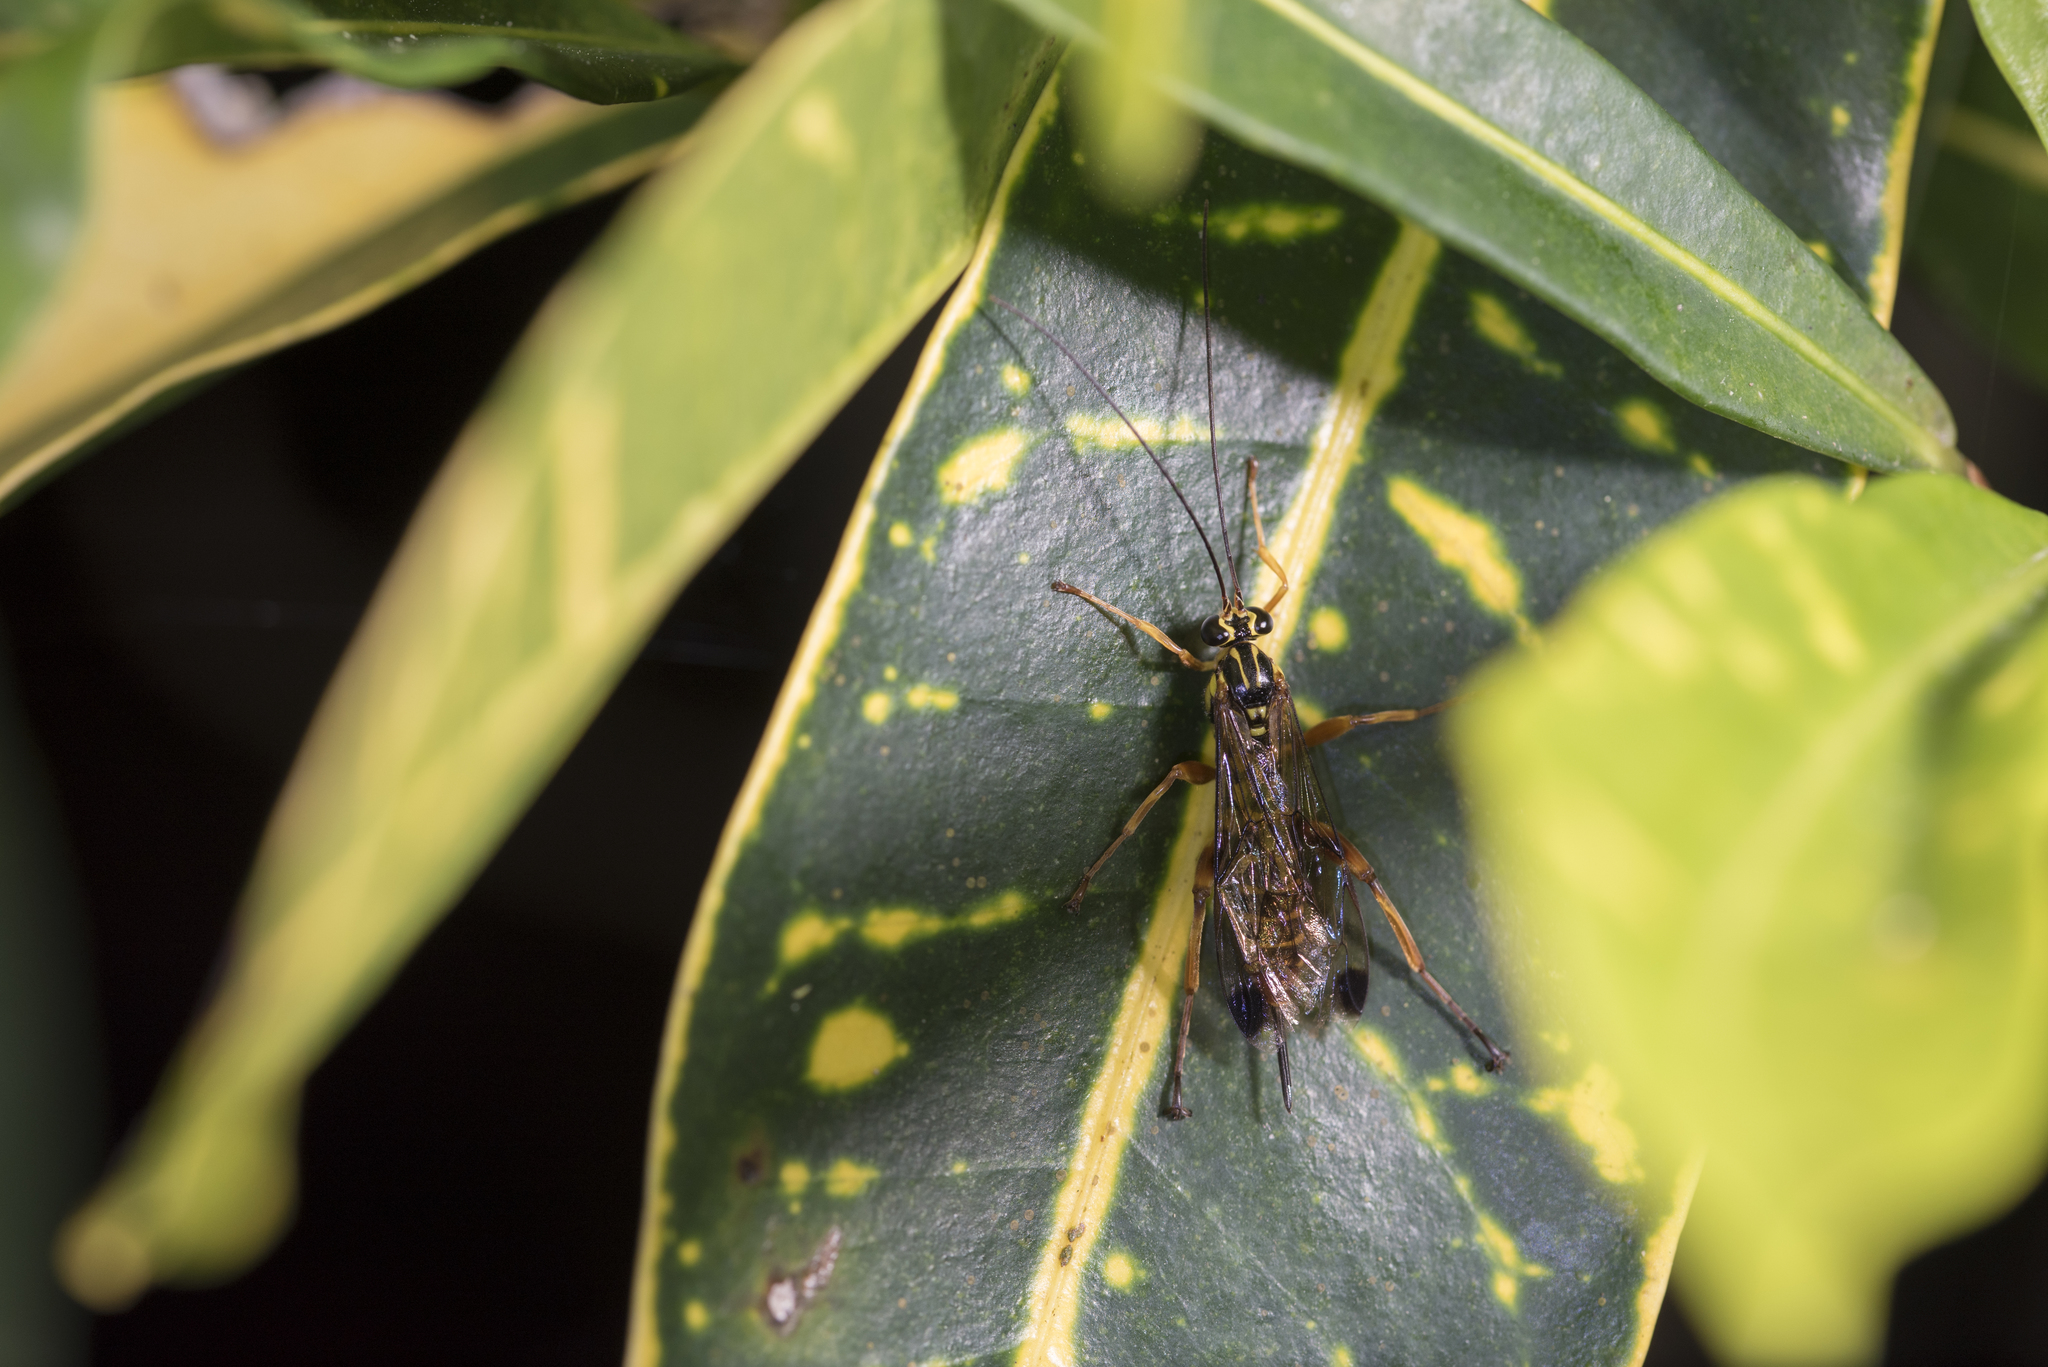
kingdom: Animalia
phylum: Arthropoda
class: Insecta
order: Hymenoptera
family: Ichneumonidae
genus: Echthromorpha
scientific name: Echthromorpha agrestoria
